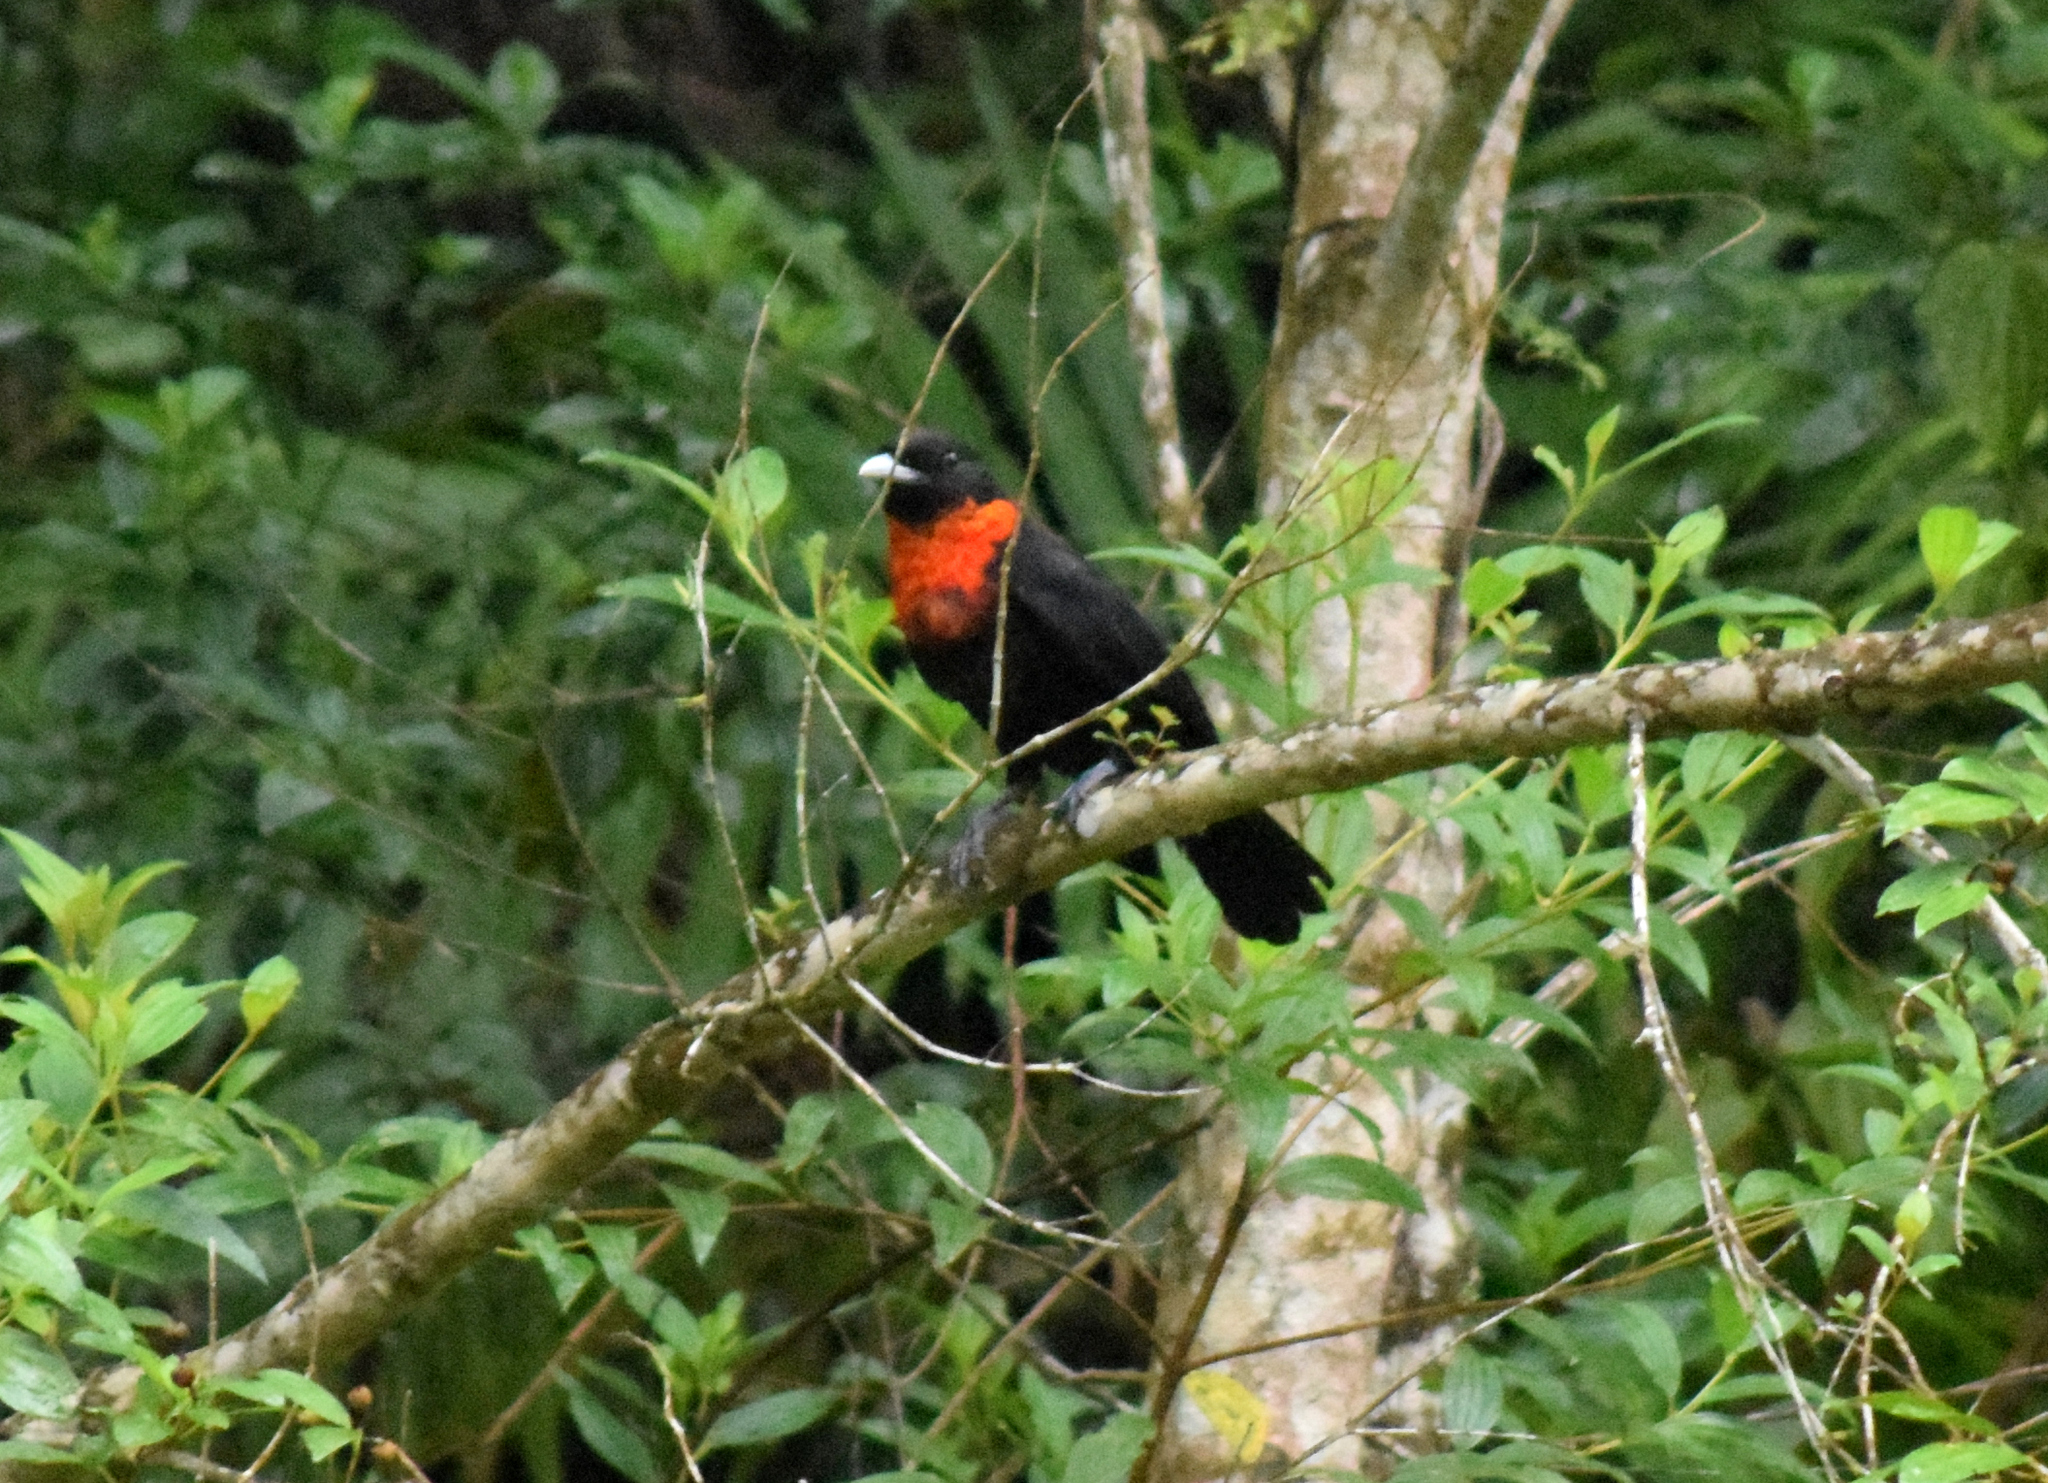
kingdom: Animalia
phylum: Chordata
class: Aves
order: Passeriformes
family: Cotingidae
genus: Pyroderus
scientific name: Pyroderus scutatus
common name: Red-ruffed fruitcrow
